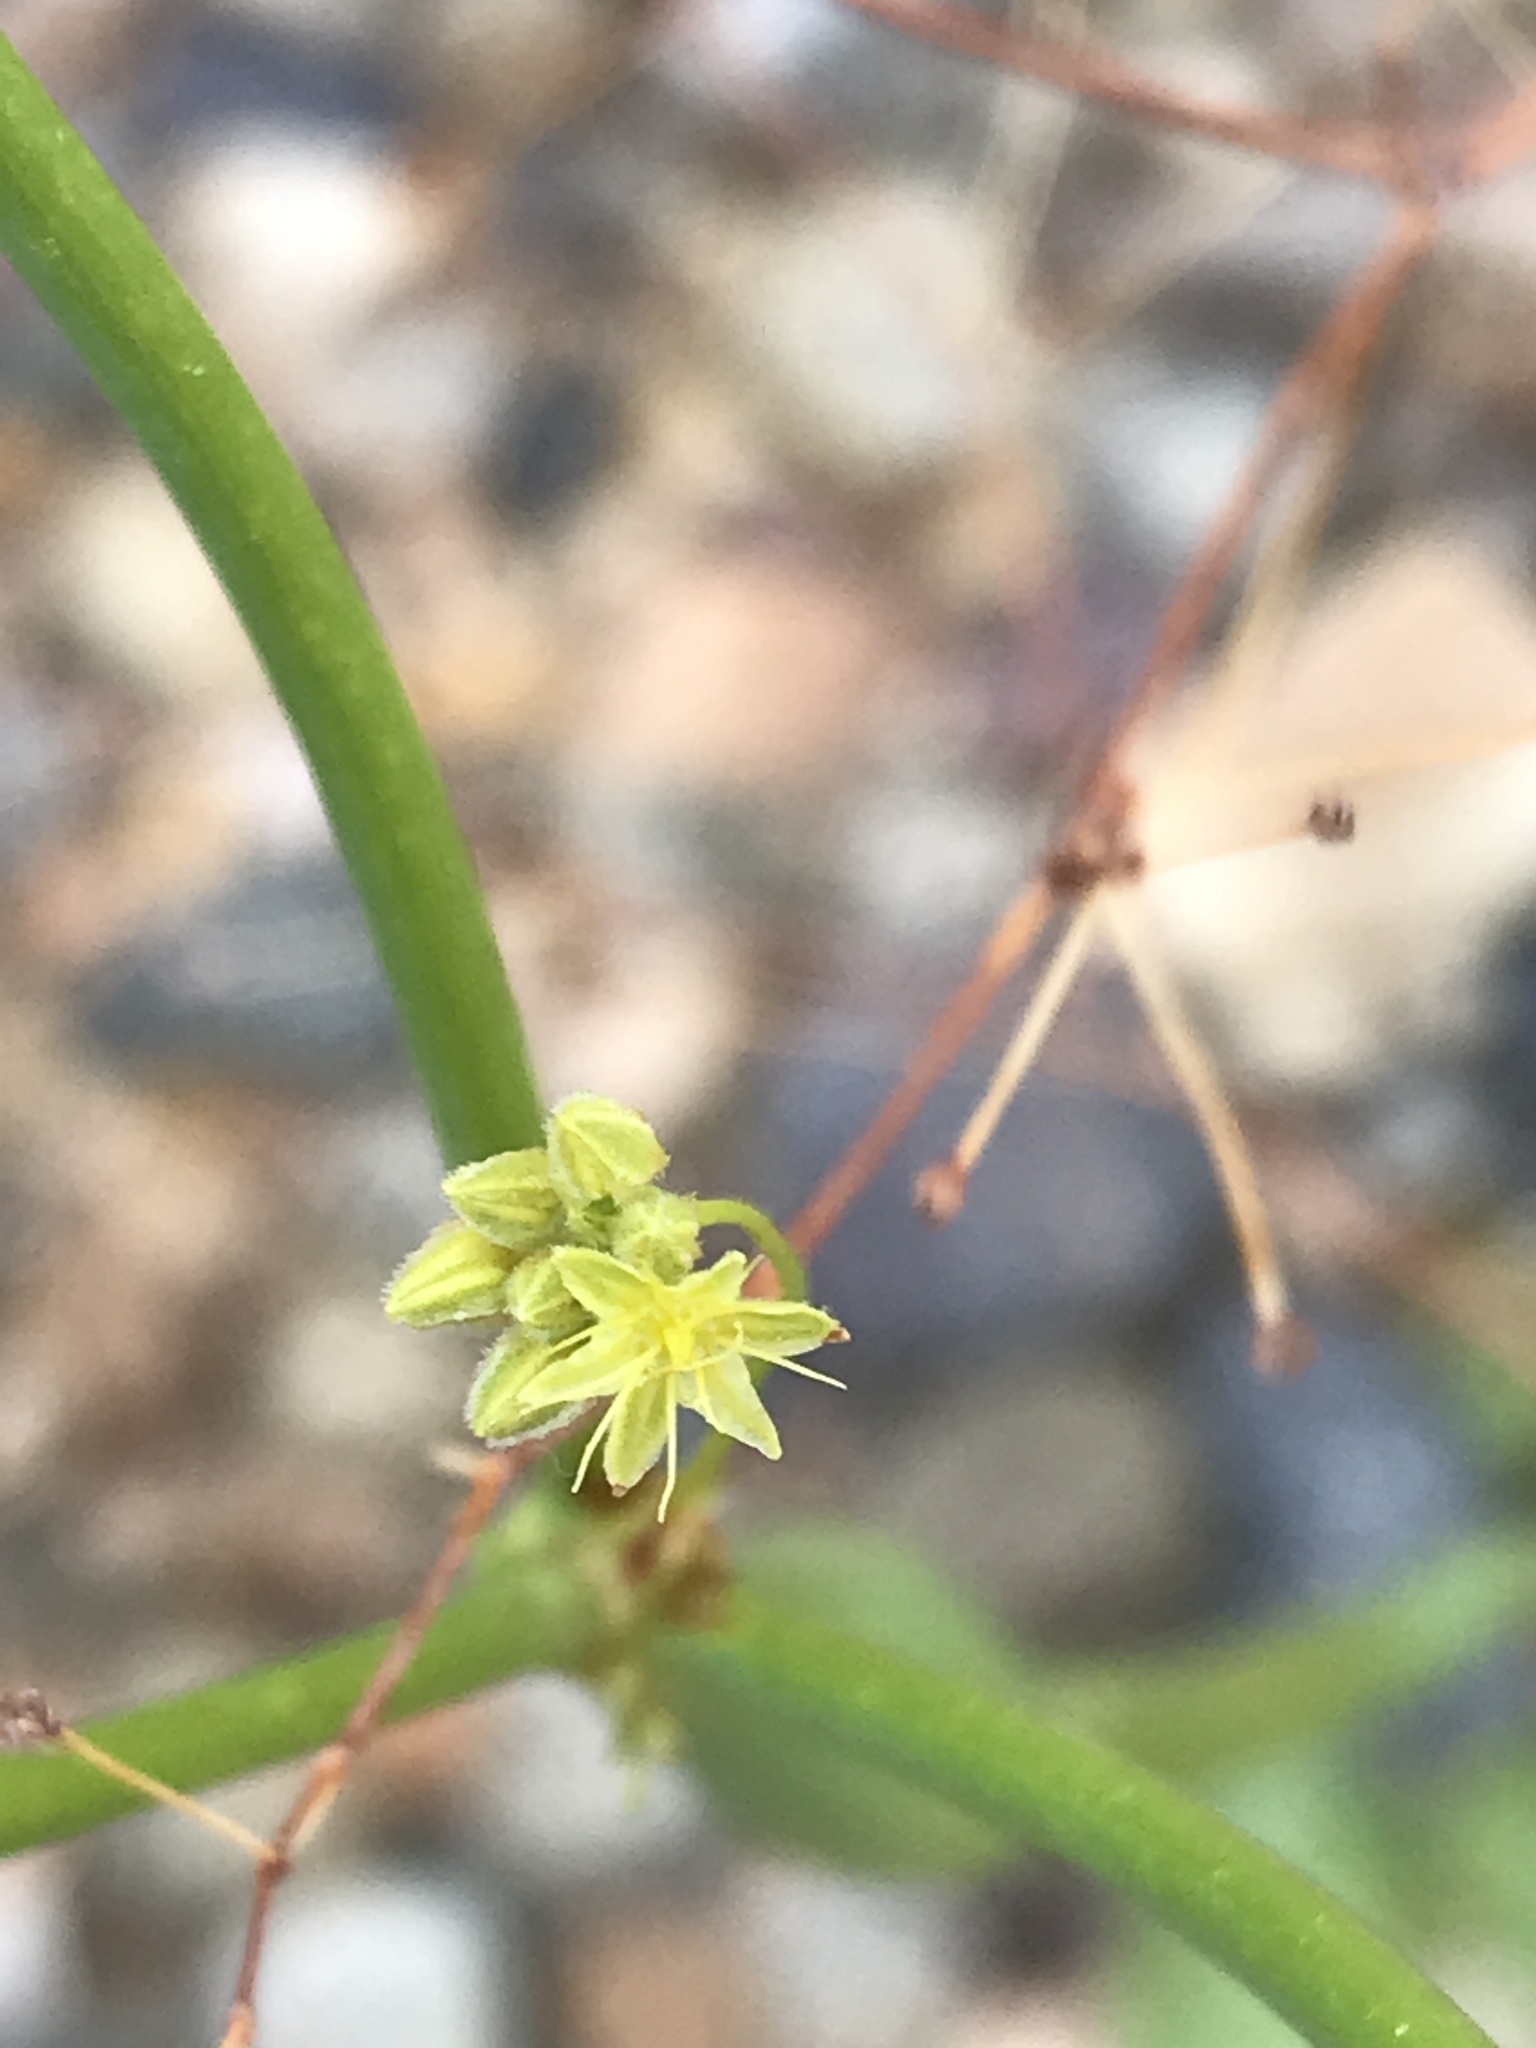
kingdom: Plantae
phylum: Tracheophyta
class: Magnoliopsida
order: Caryophyllales
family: Polygonaceae
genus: Eriogonum
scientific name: Eriogonum inflatum
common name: Desert trumpet
